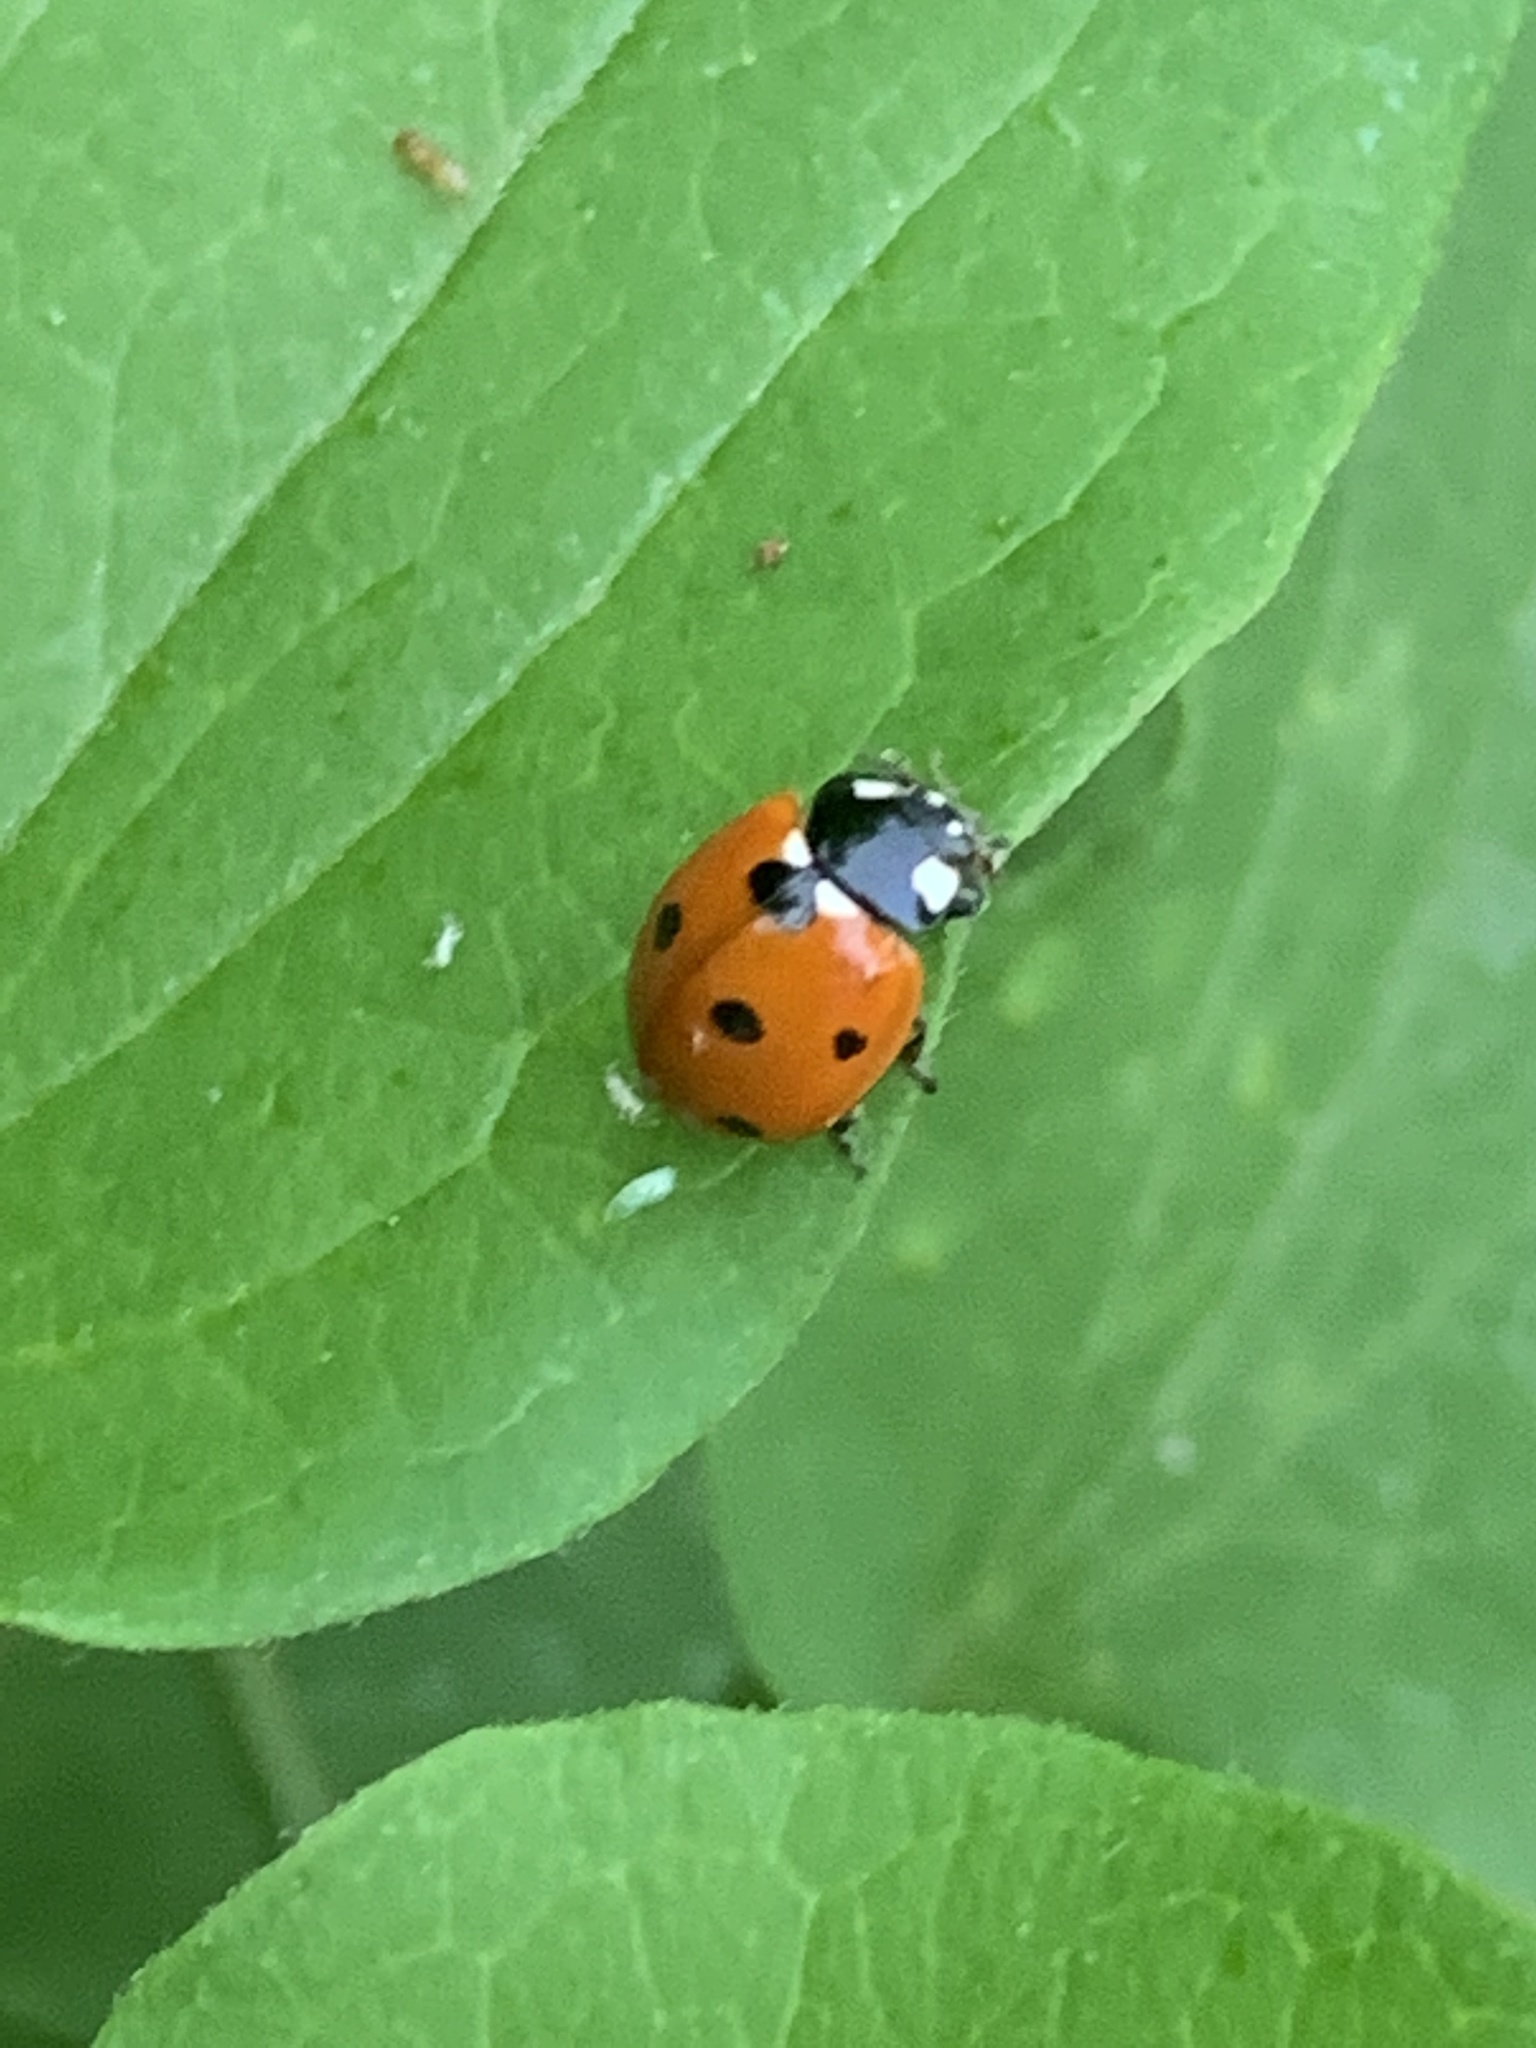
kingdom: Animalia
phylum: Arthropoda
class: Insecta
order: Coleoptera
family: Coccinellidae
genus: Coccinella
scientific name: Coccinella septempunctata
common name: Sevenspotted lady beetle
